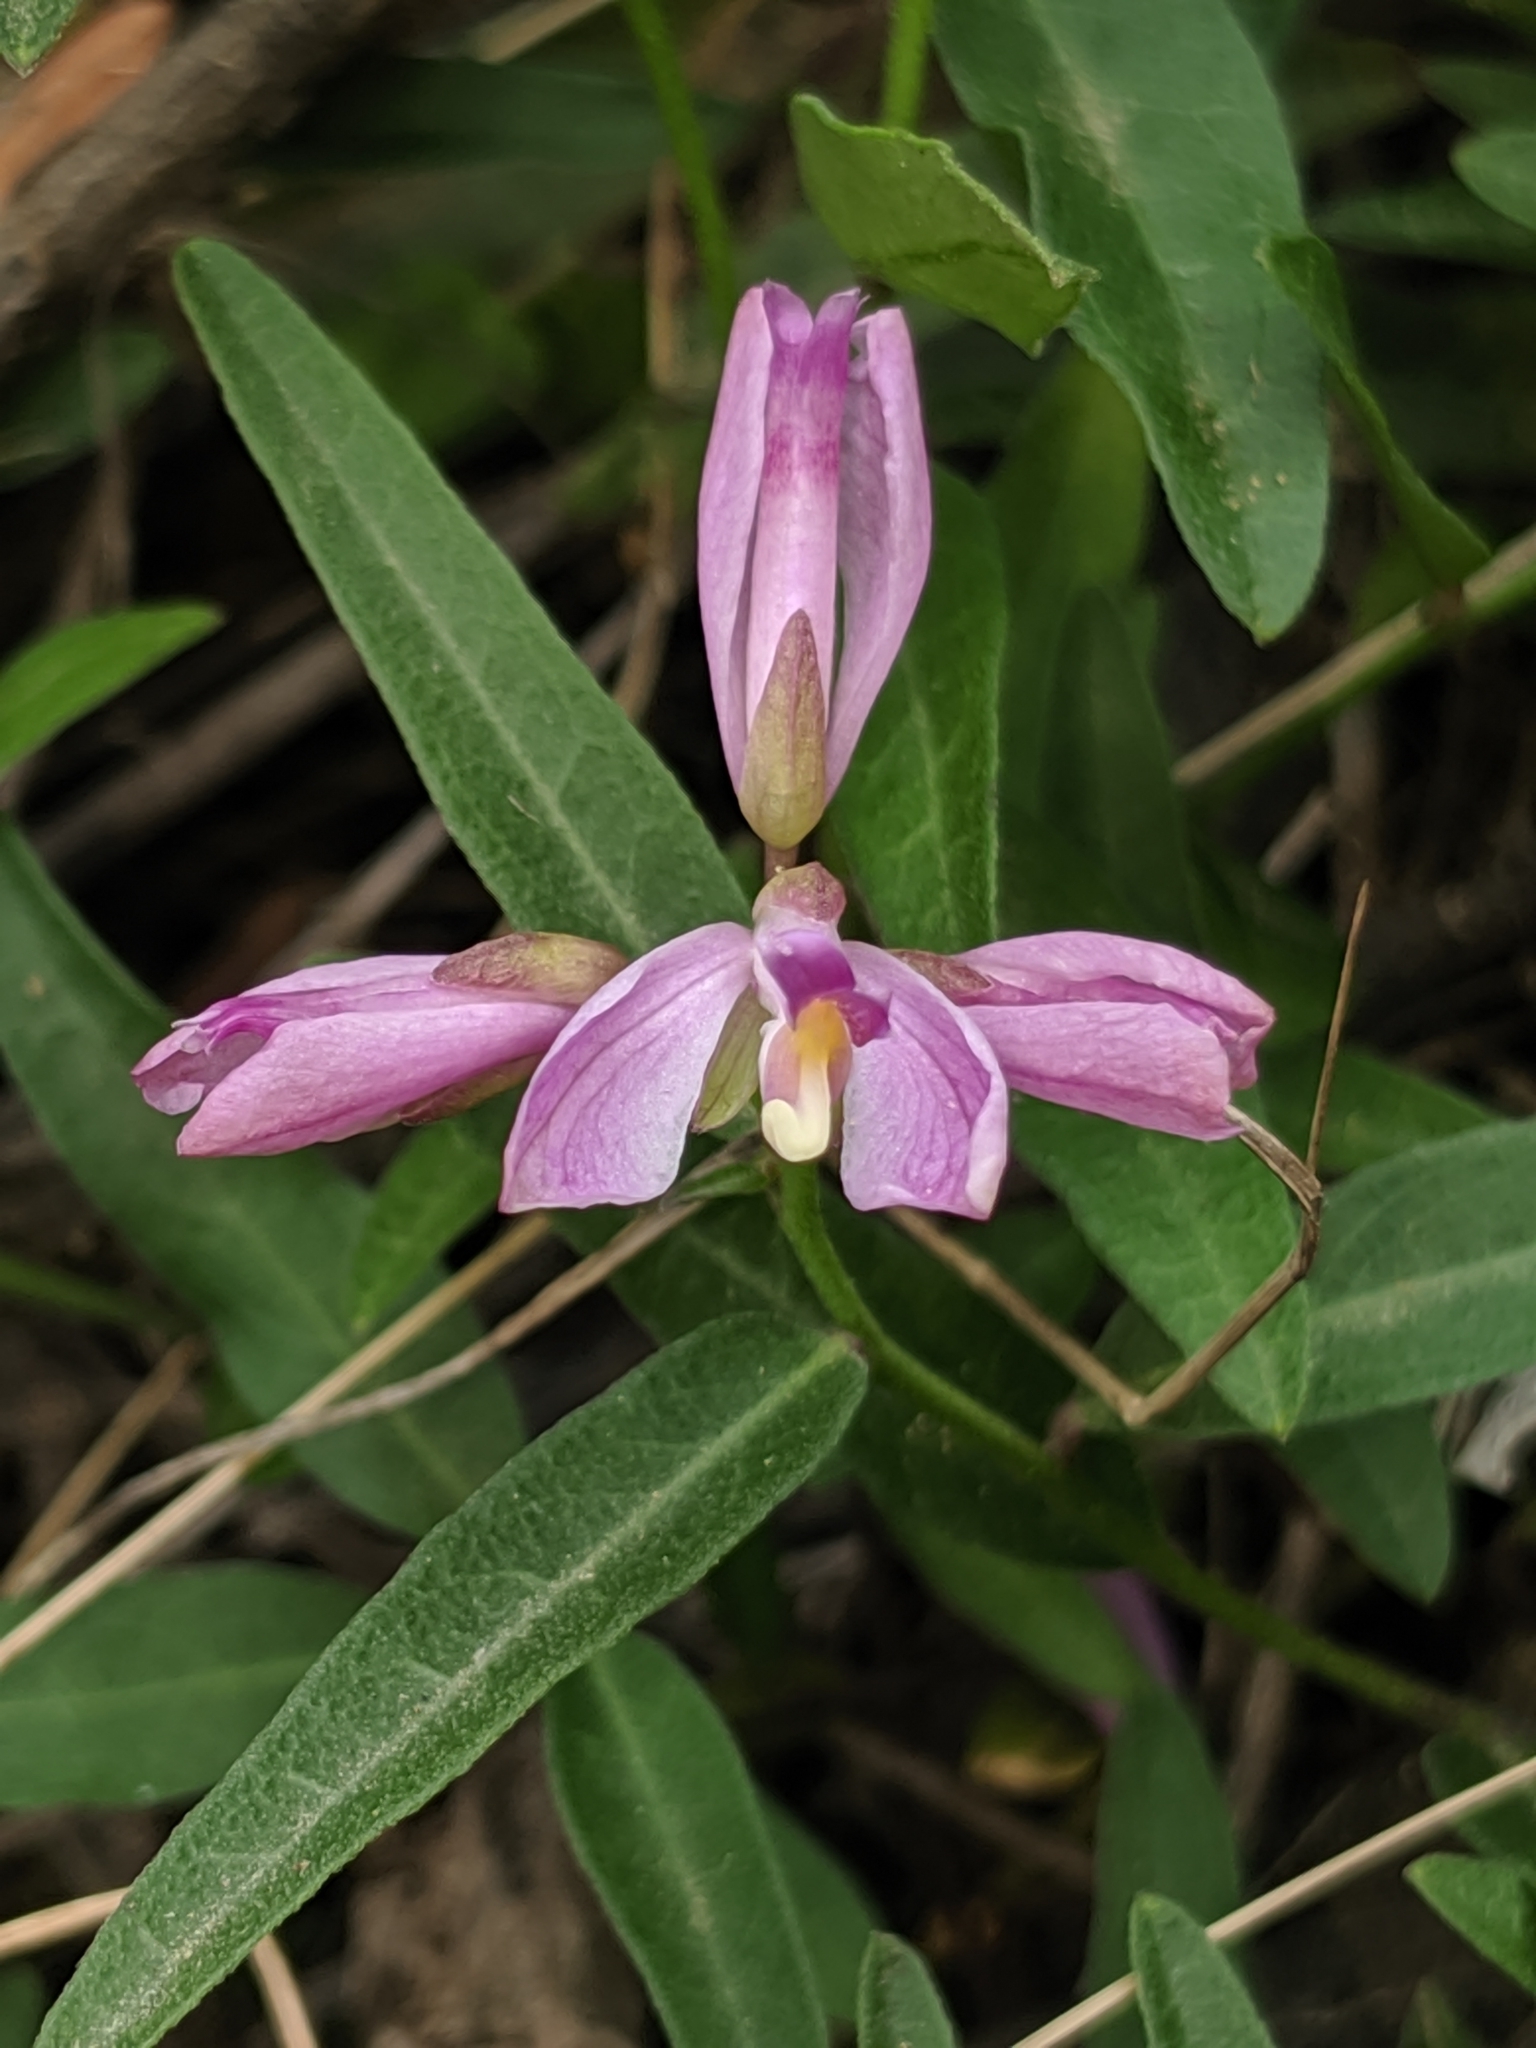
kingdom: Plantae
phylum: Tracheophyta
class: Magnoliopsida
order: Fabales
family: Polygalaceae
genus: Rhinotropis
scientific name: Rhinotropis californica
